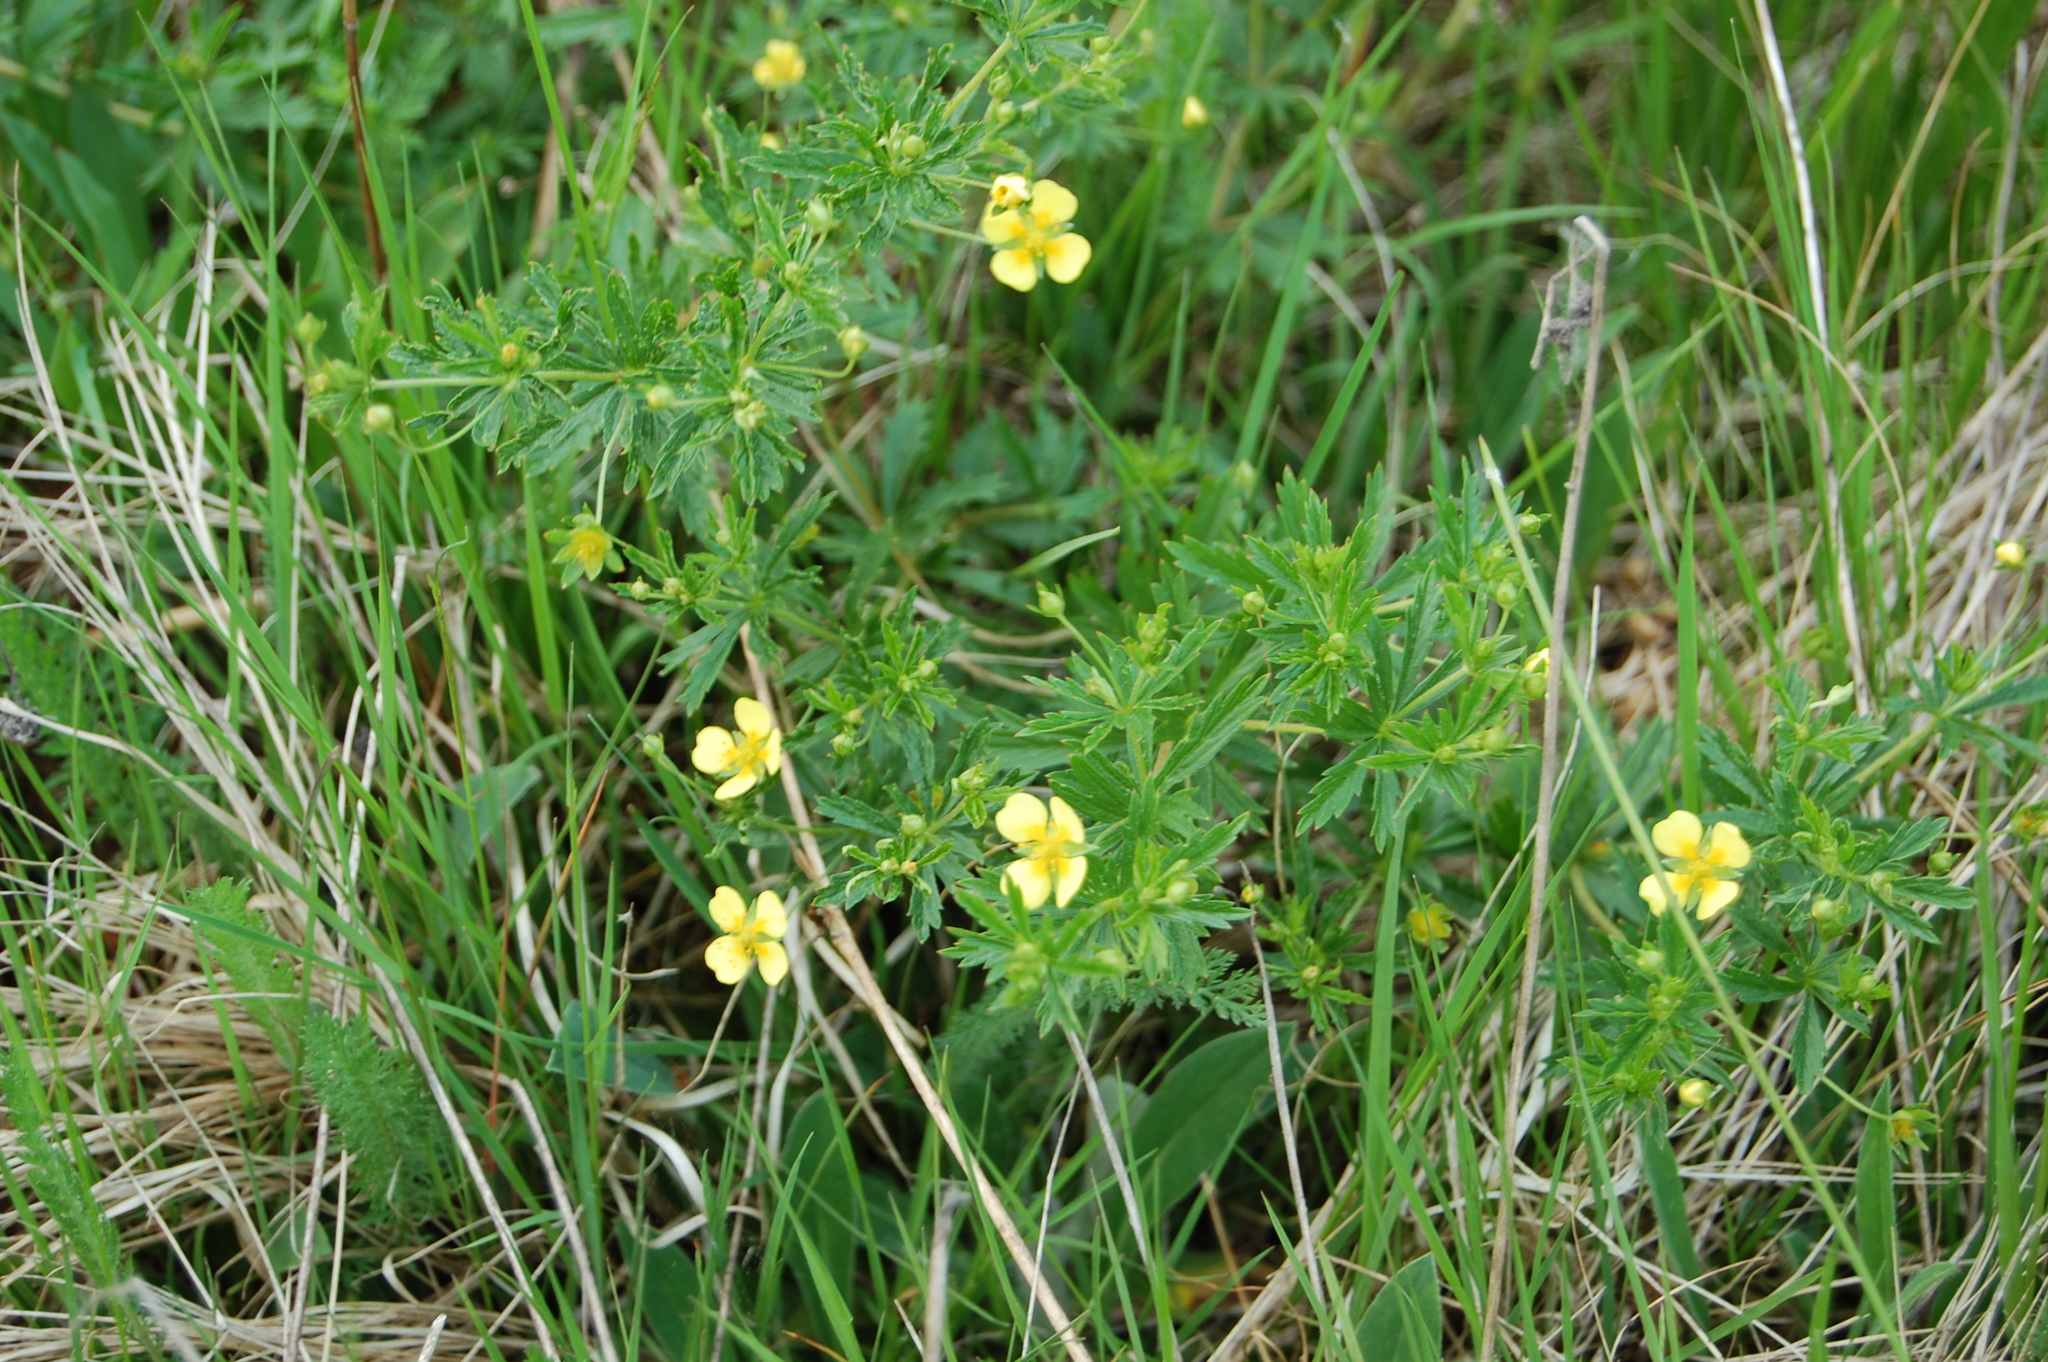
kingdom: Plantae
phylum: Tracheophyta
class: Magnoliopsida
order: Rosales
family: Rosaceae
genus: Potentilla
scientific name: Potentilla erecta
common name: Tormentil
